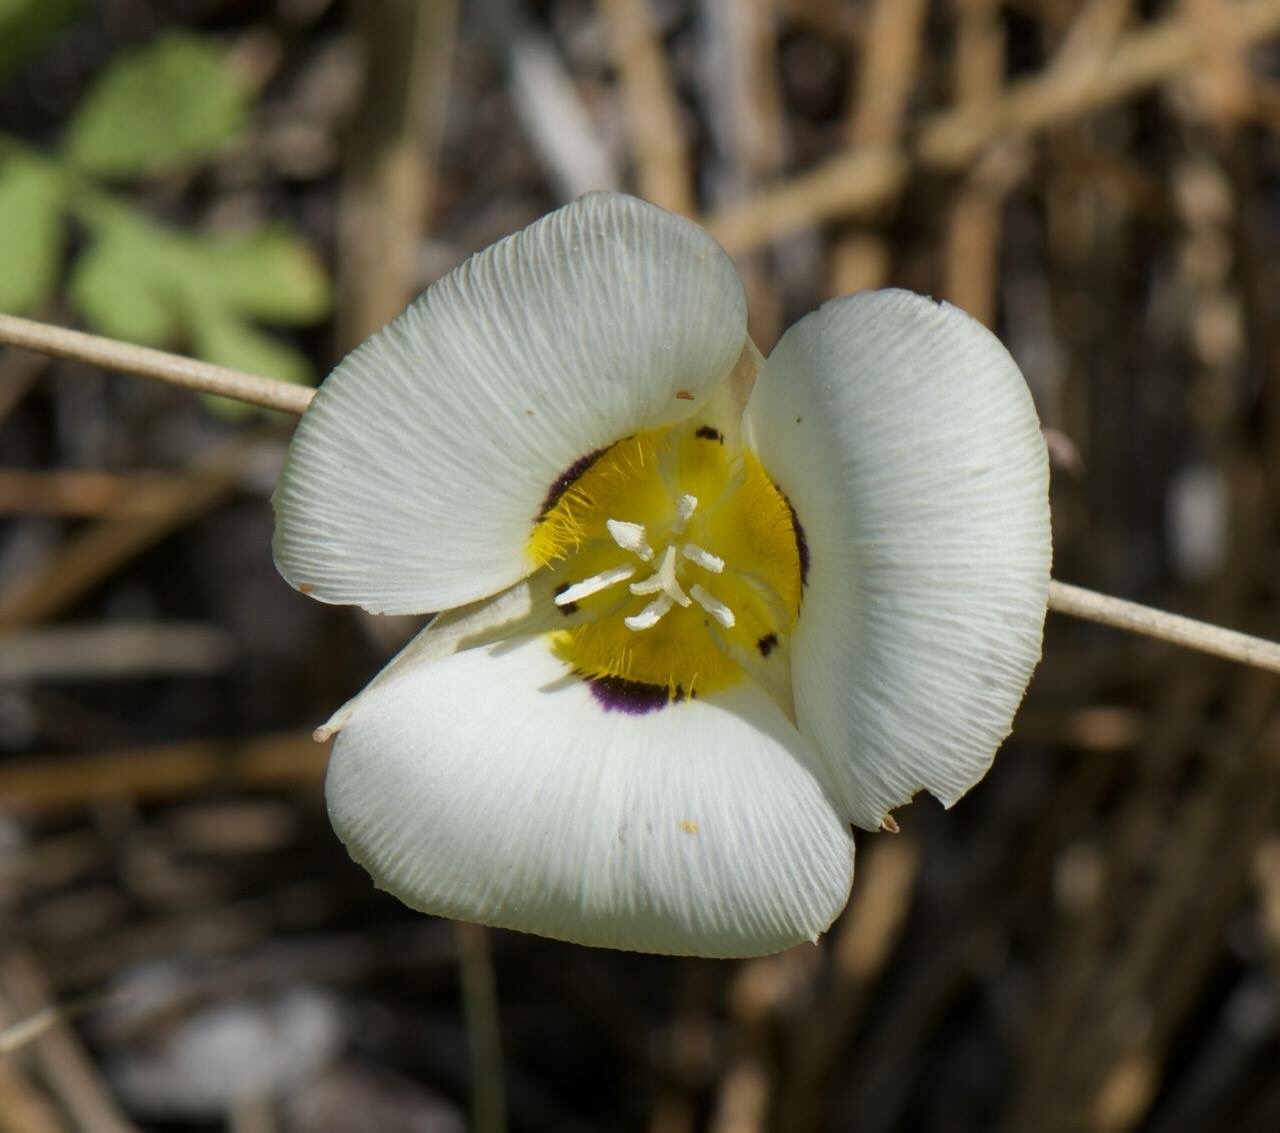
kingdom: Plantae
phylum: Tracheophyta
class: Liliopsida
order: Liliales
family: Liliaceae
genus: Calochortus
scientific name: Calochortus leichtlinii
